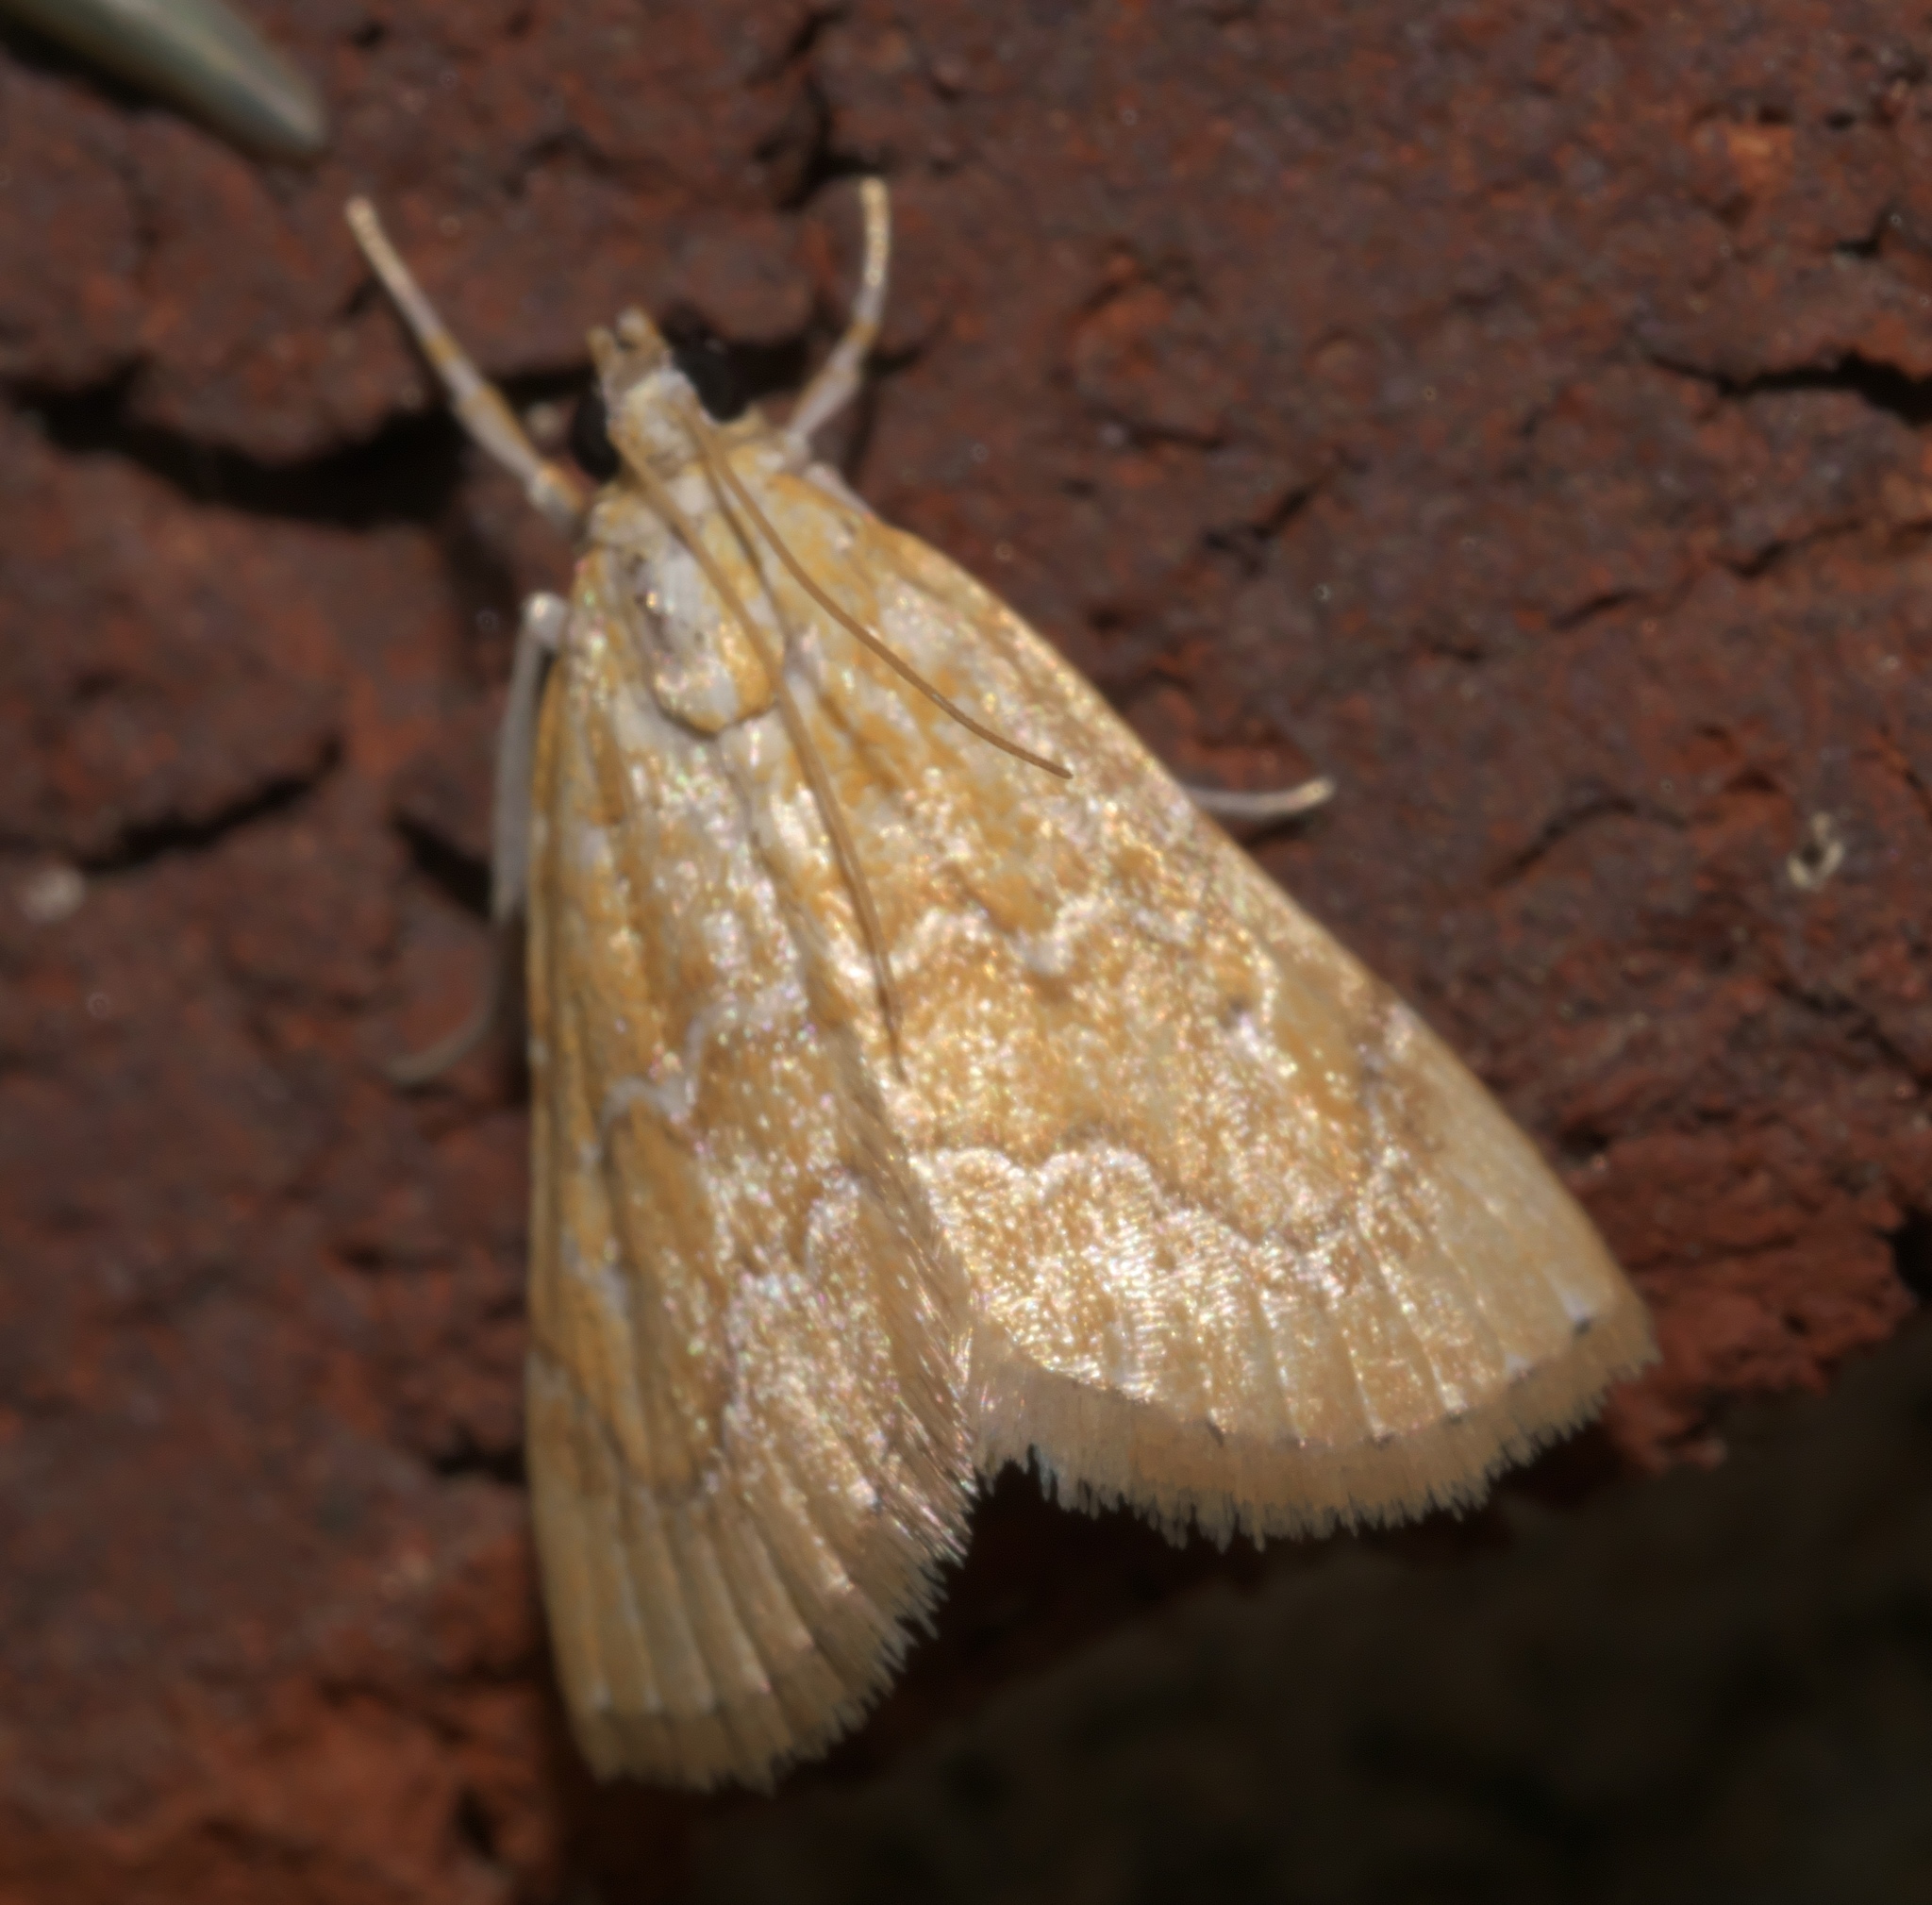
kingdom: Animalia
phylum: Arthropoda
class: Insecta
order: Lepidoptera
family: Crambidae
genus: Glaphyria
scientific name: Glaphyria sesquistrialis
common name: White-roped glaphyria
